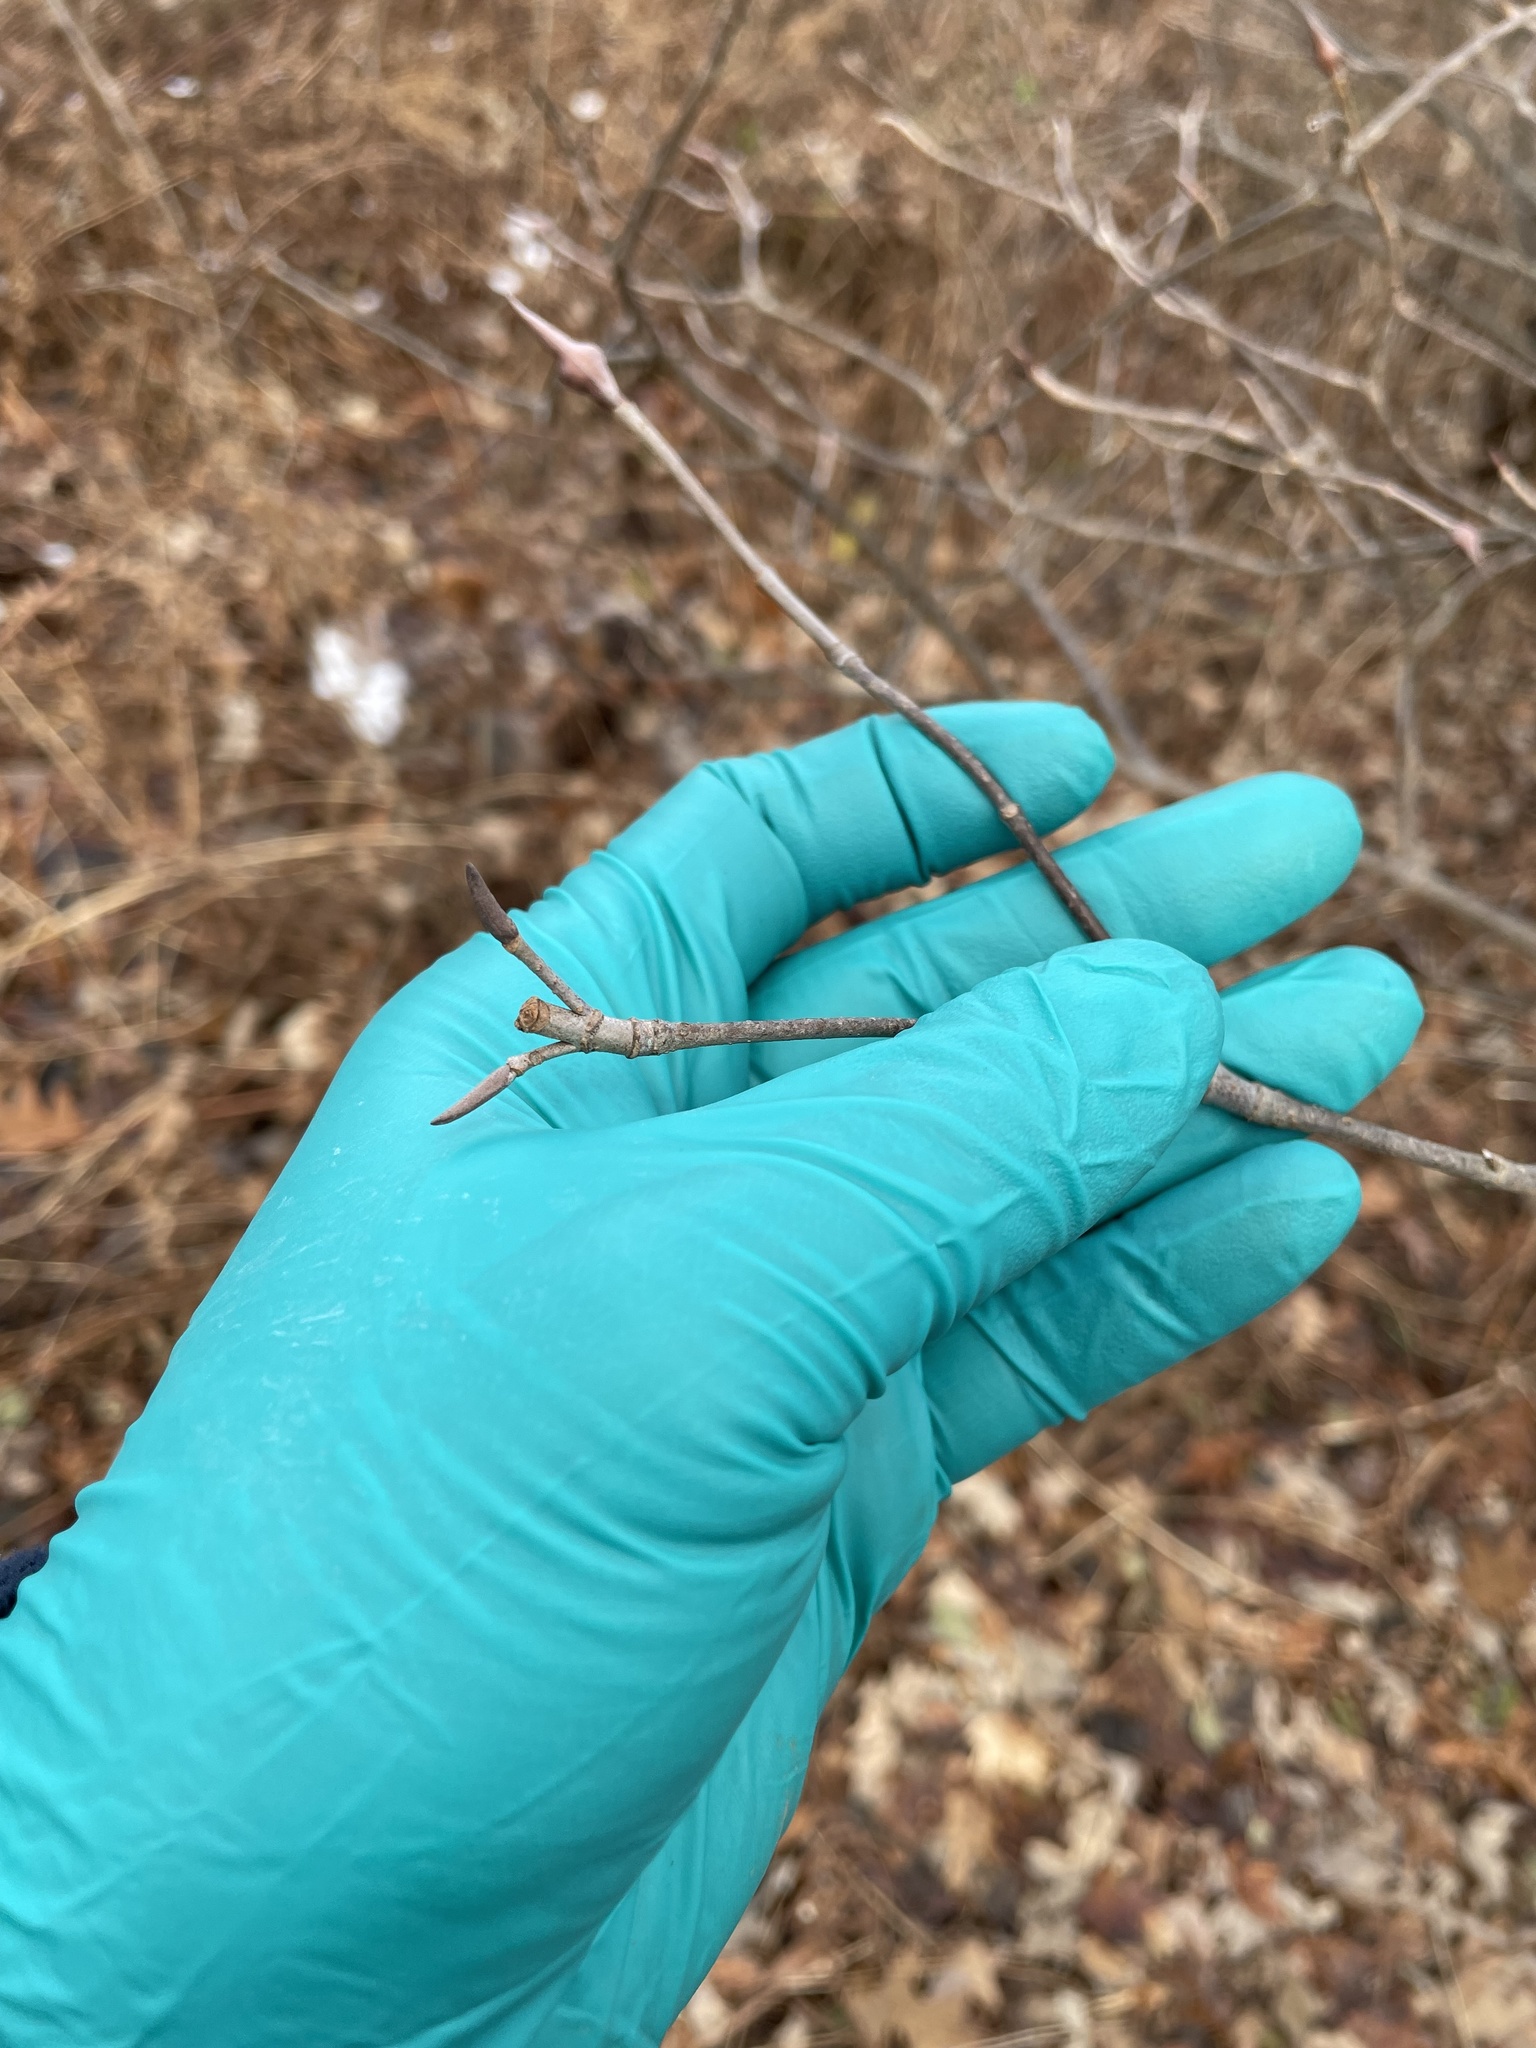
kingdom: Plantae
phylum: Tracheophyta
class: Magnoliopsida
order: Dipsacales
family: Viburnaceae
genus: Viburnum
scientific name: Viburnum lentago
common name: Black haw
